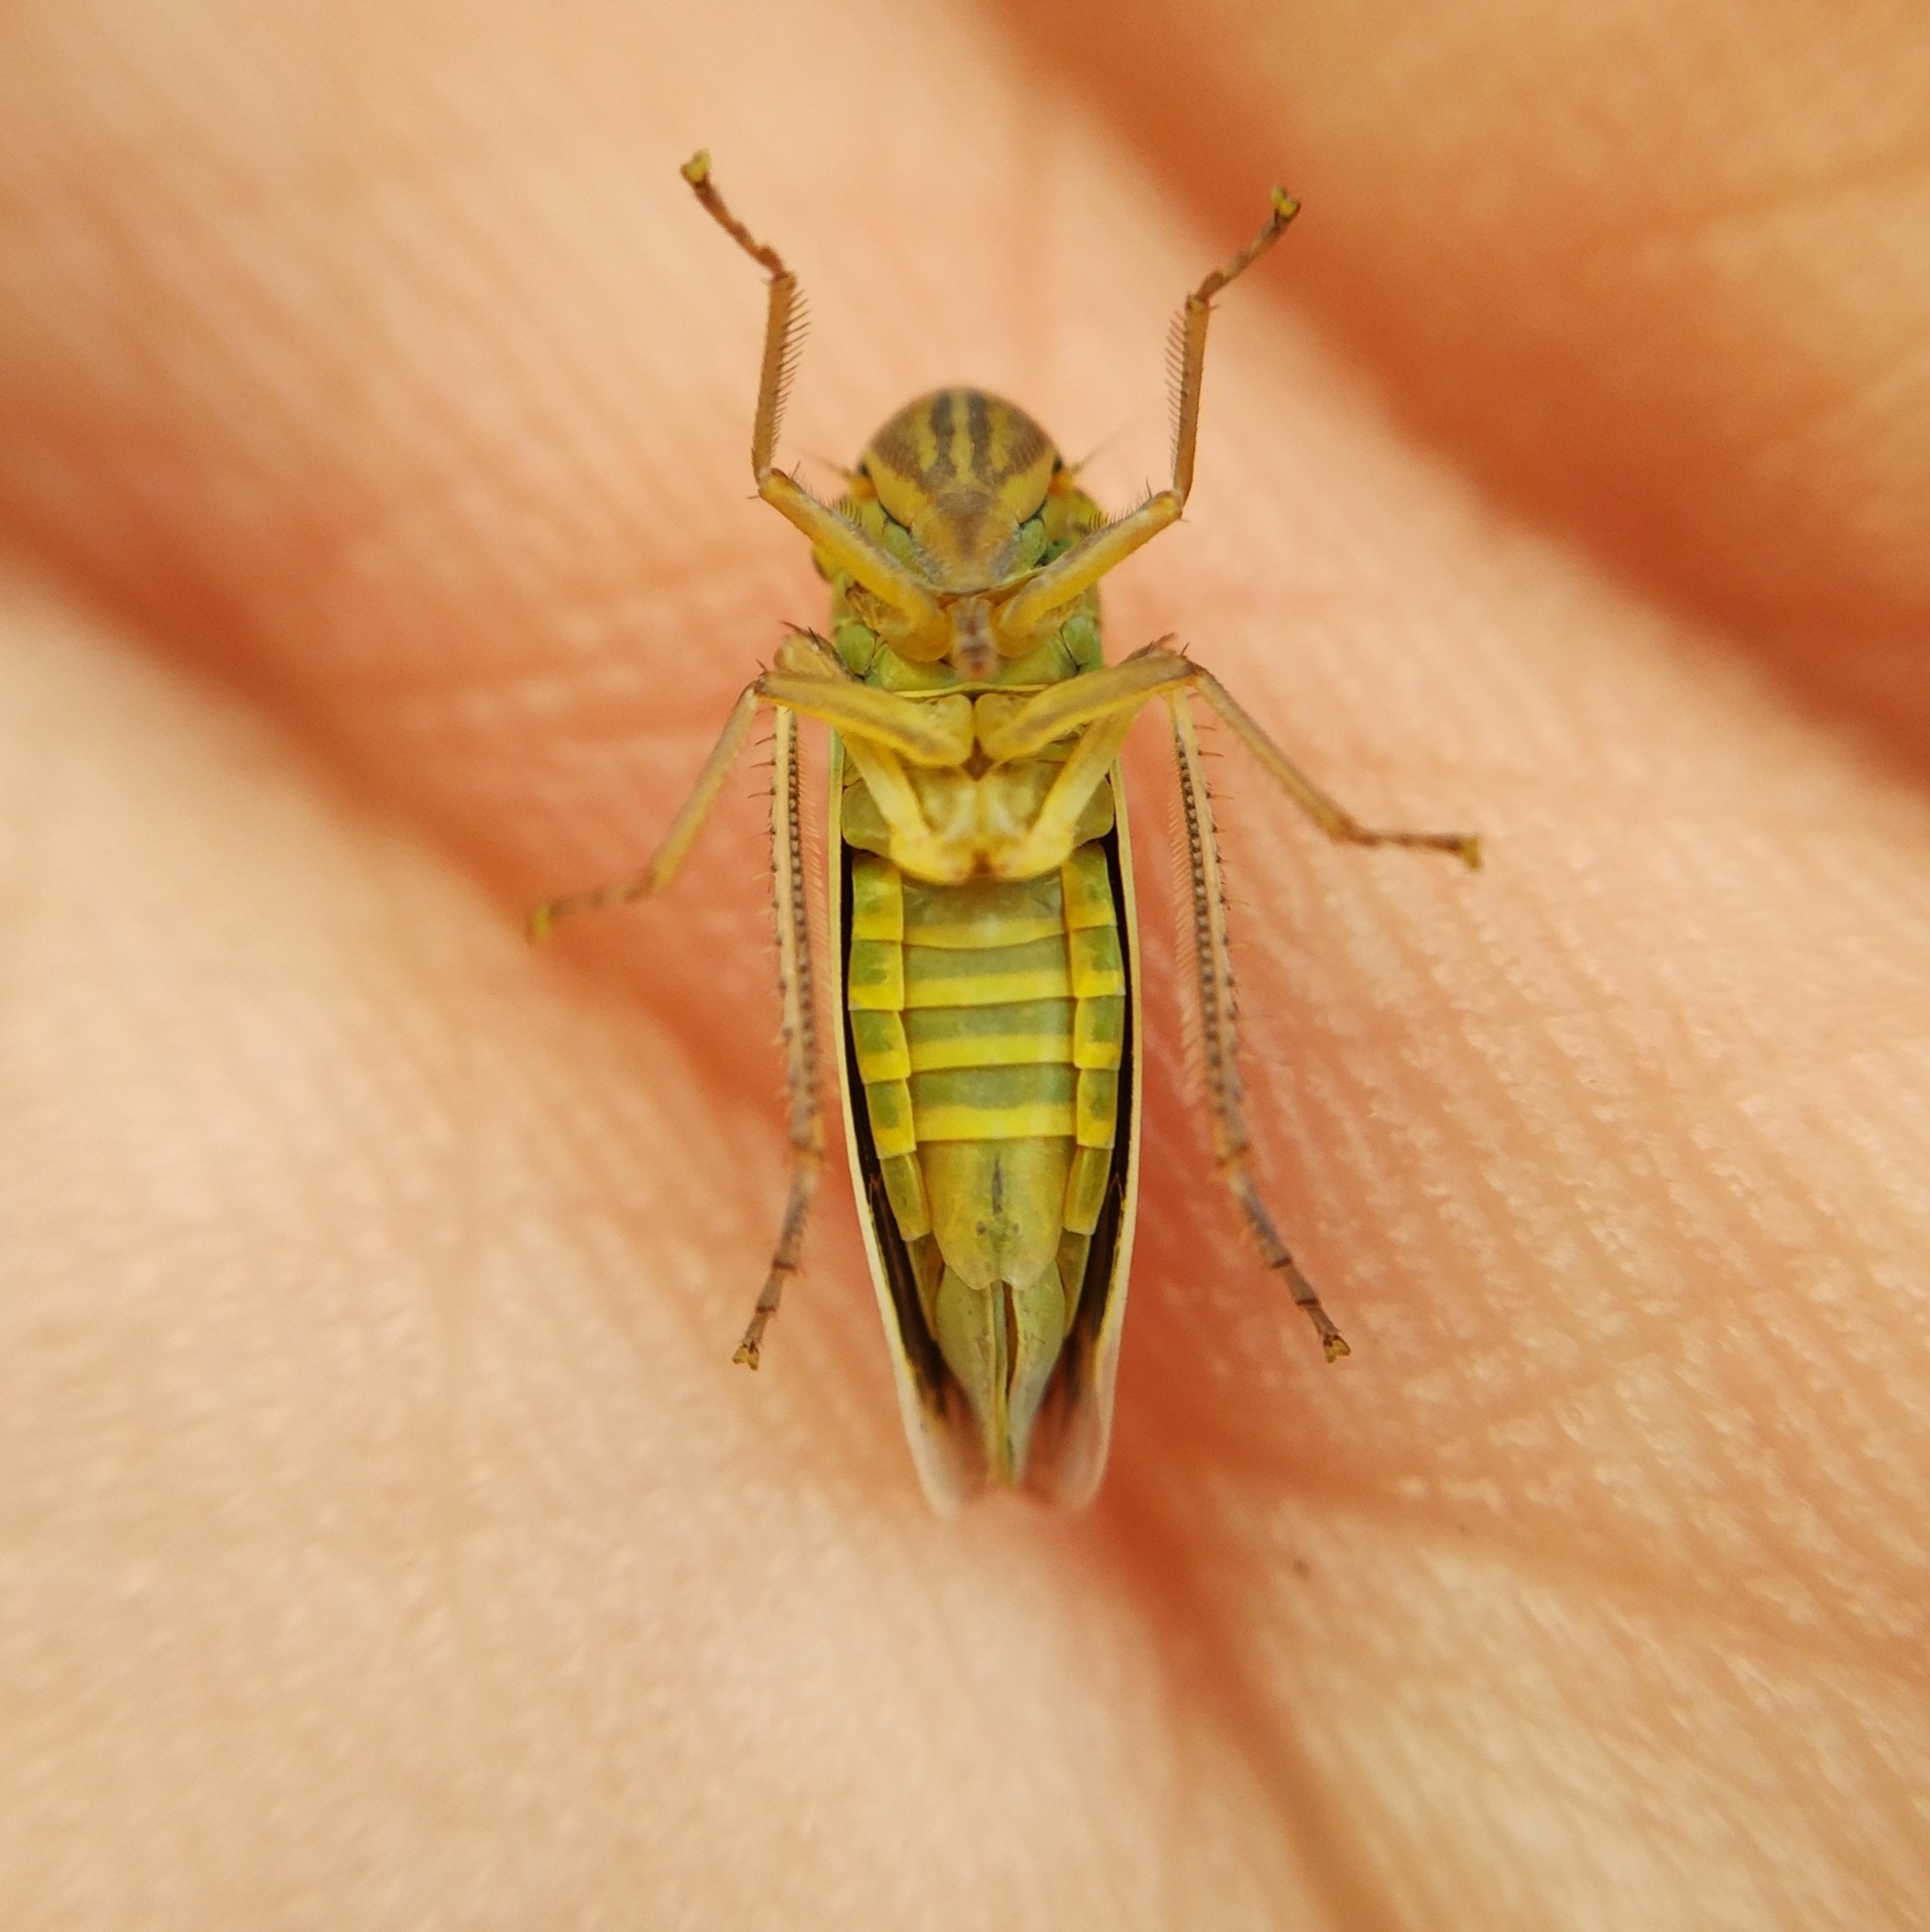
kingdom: Animalia
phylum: Arthropoda
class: Insecta
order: Hemiptera
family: Cicadellidae
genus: Cicadella
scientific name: Cicadella viridis
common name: Leafhopper
